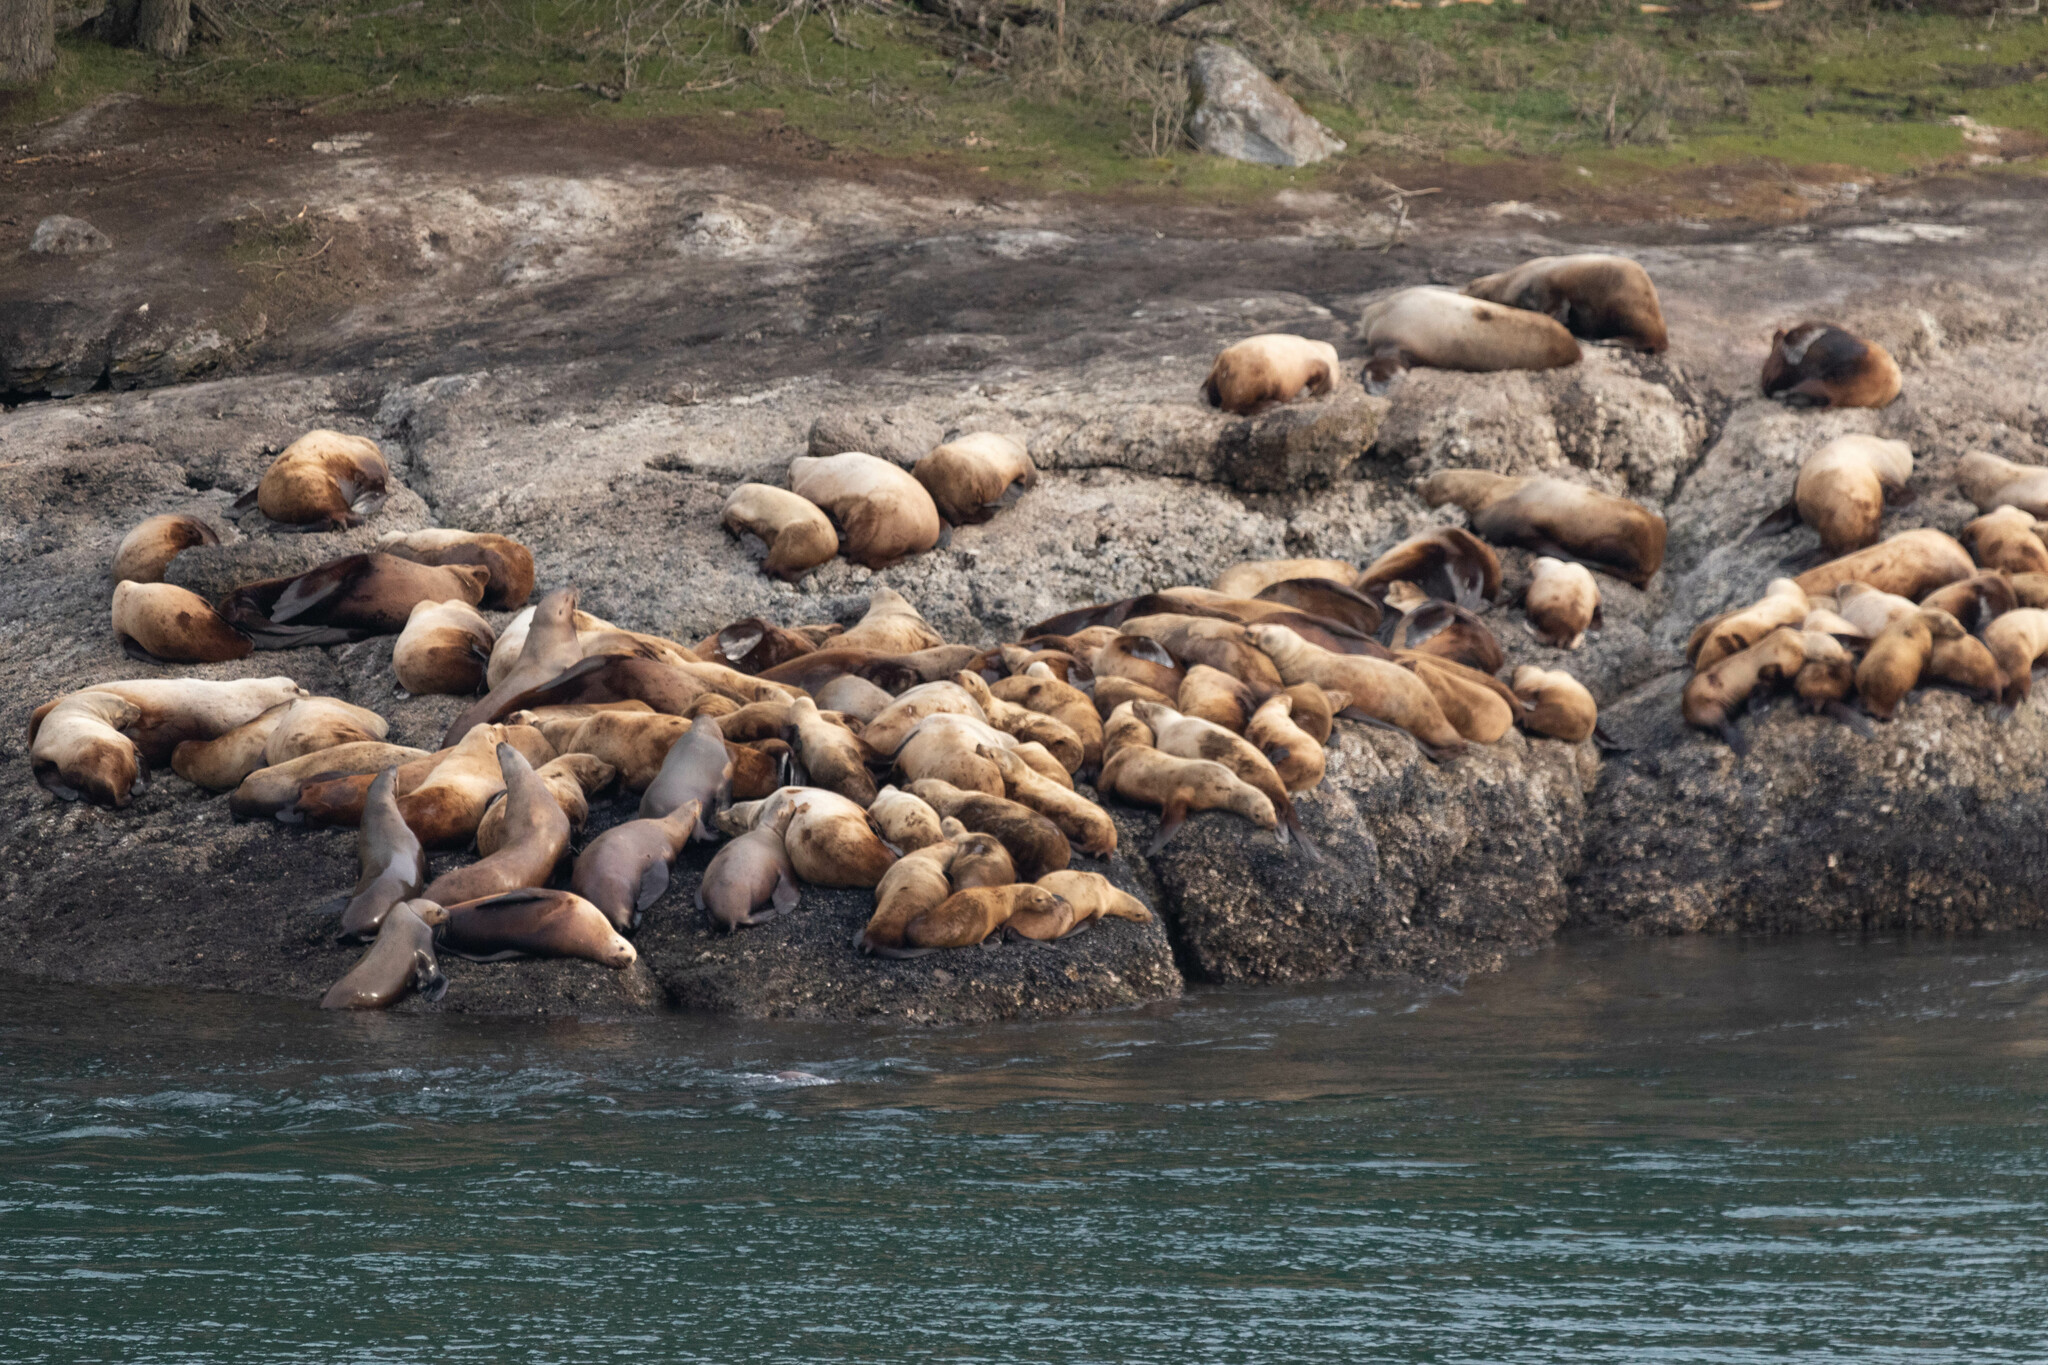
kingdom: Animalia
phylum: Chordata
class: Mammalia
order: Carnivora
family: Otariidae
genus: Eumetopias
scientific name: Eumetopias jubatus
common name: Steller sea lion
